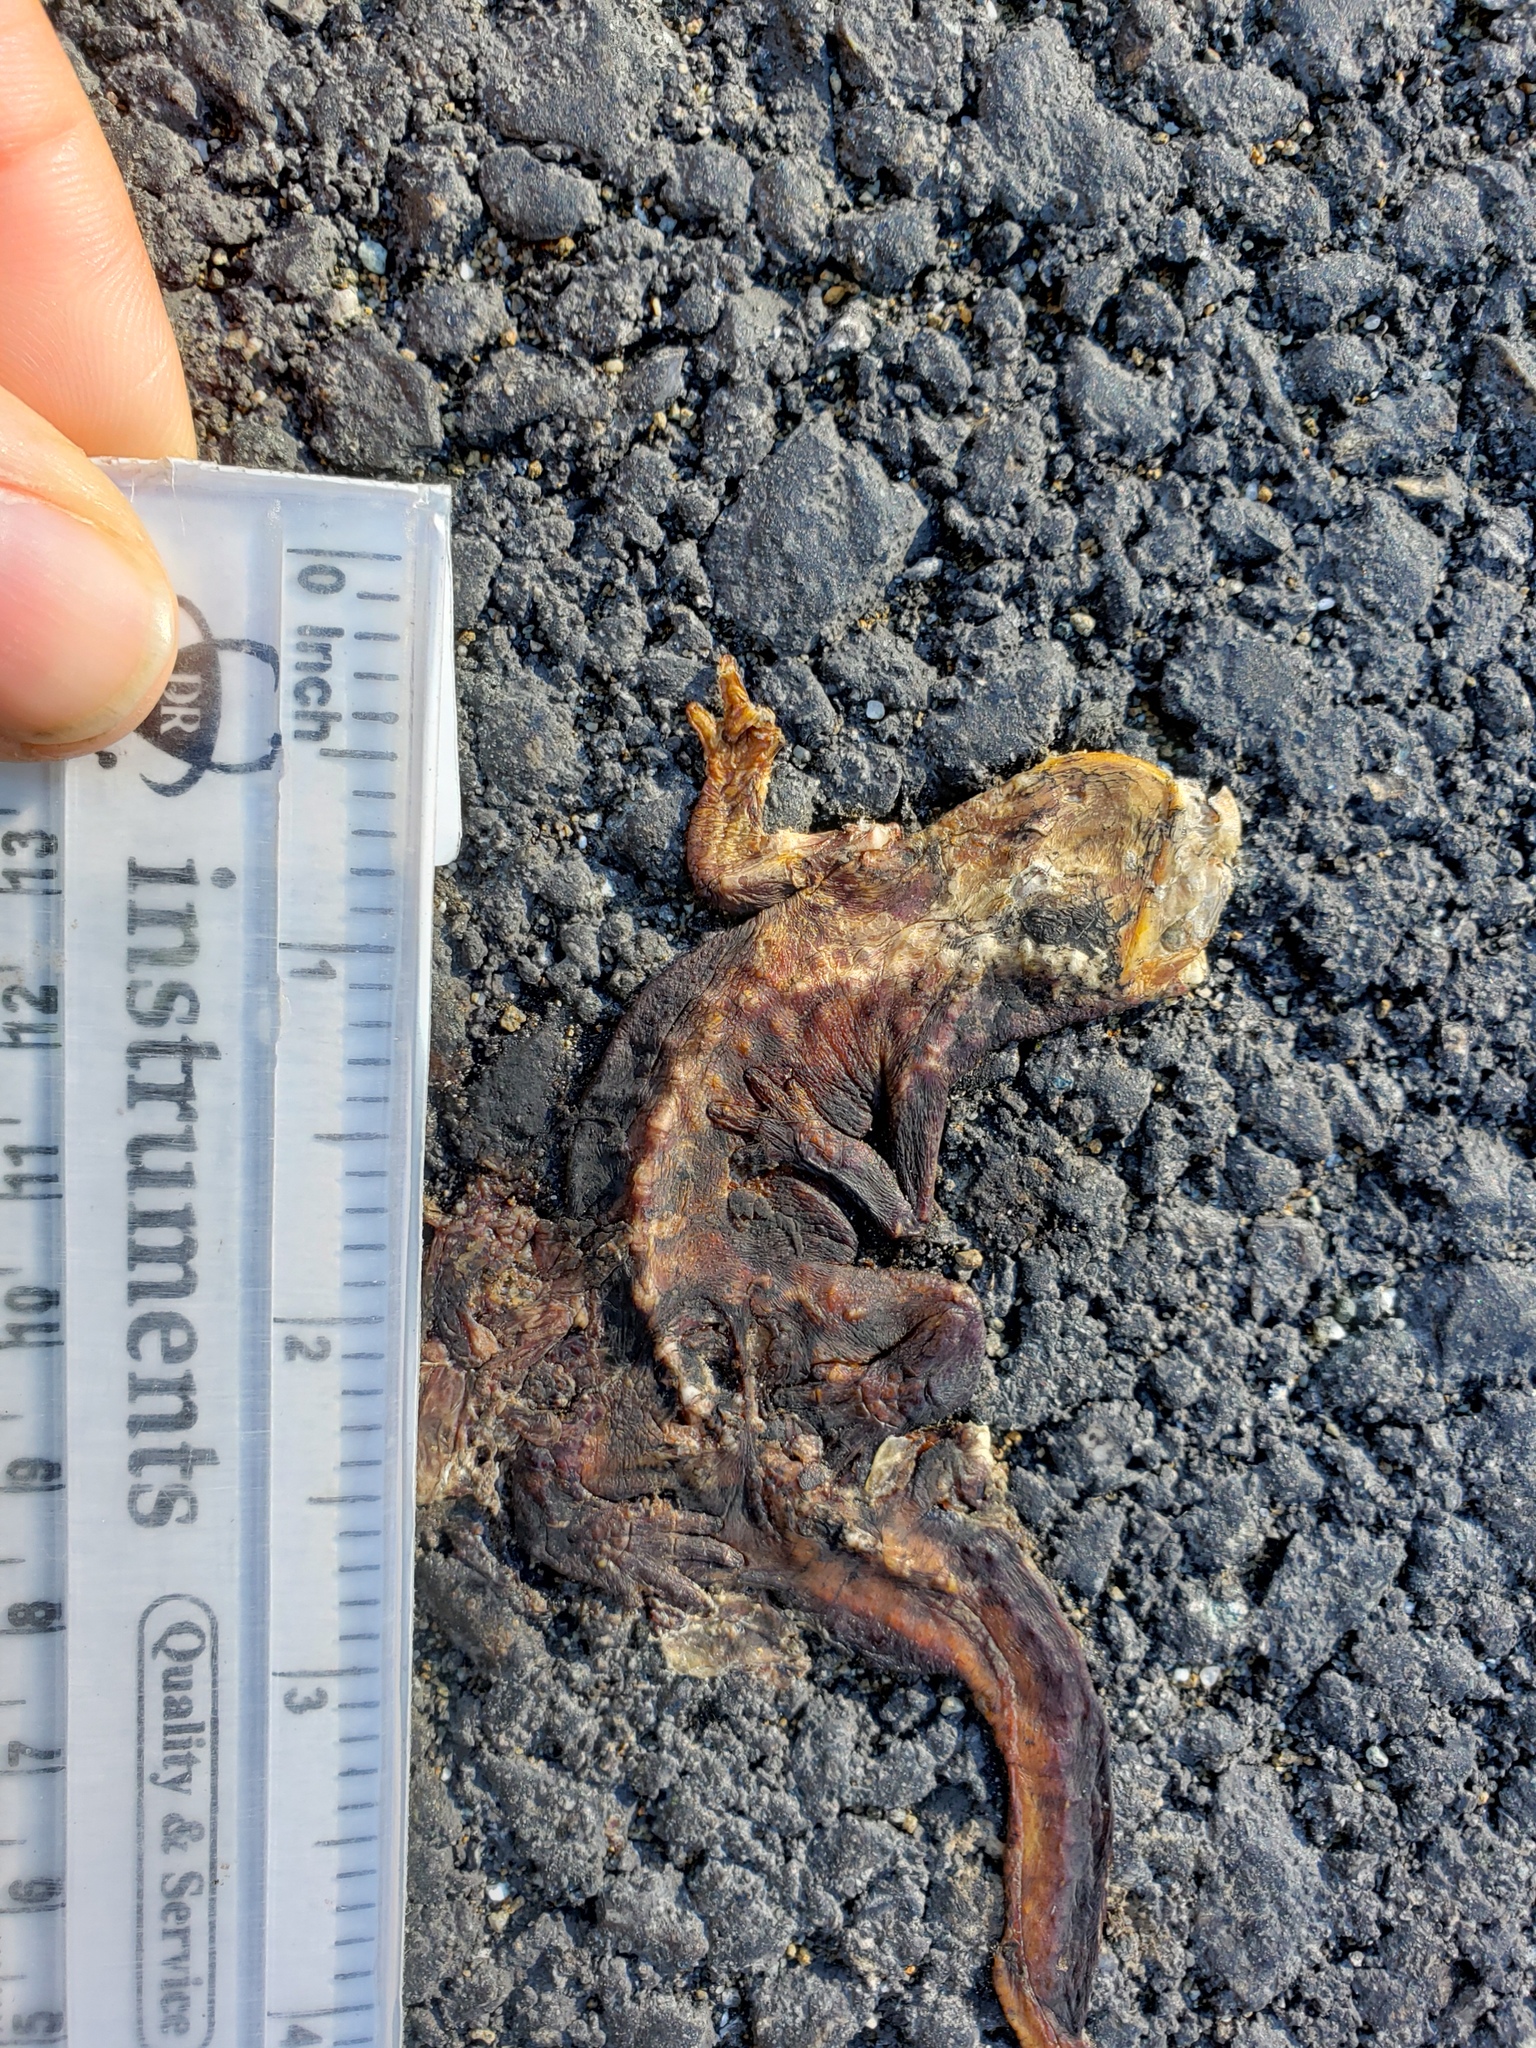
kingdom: Animalia
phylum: Chordata
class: Amphibia
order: Caudata
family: Salamandridae
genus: Taricha
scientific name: Taricha
